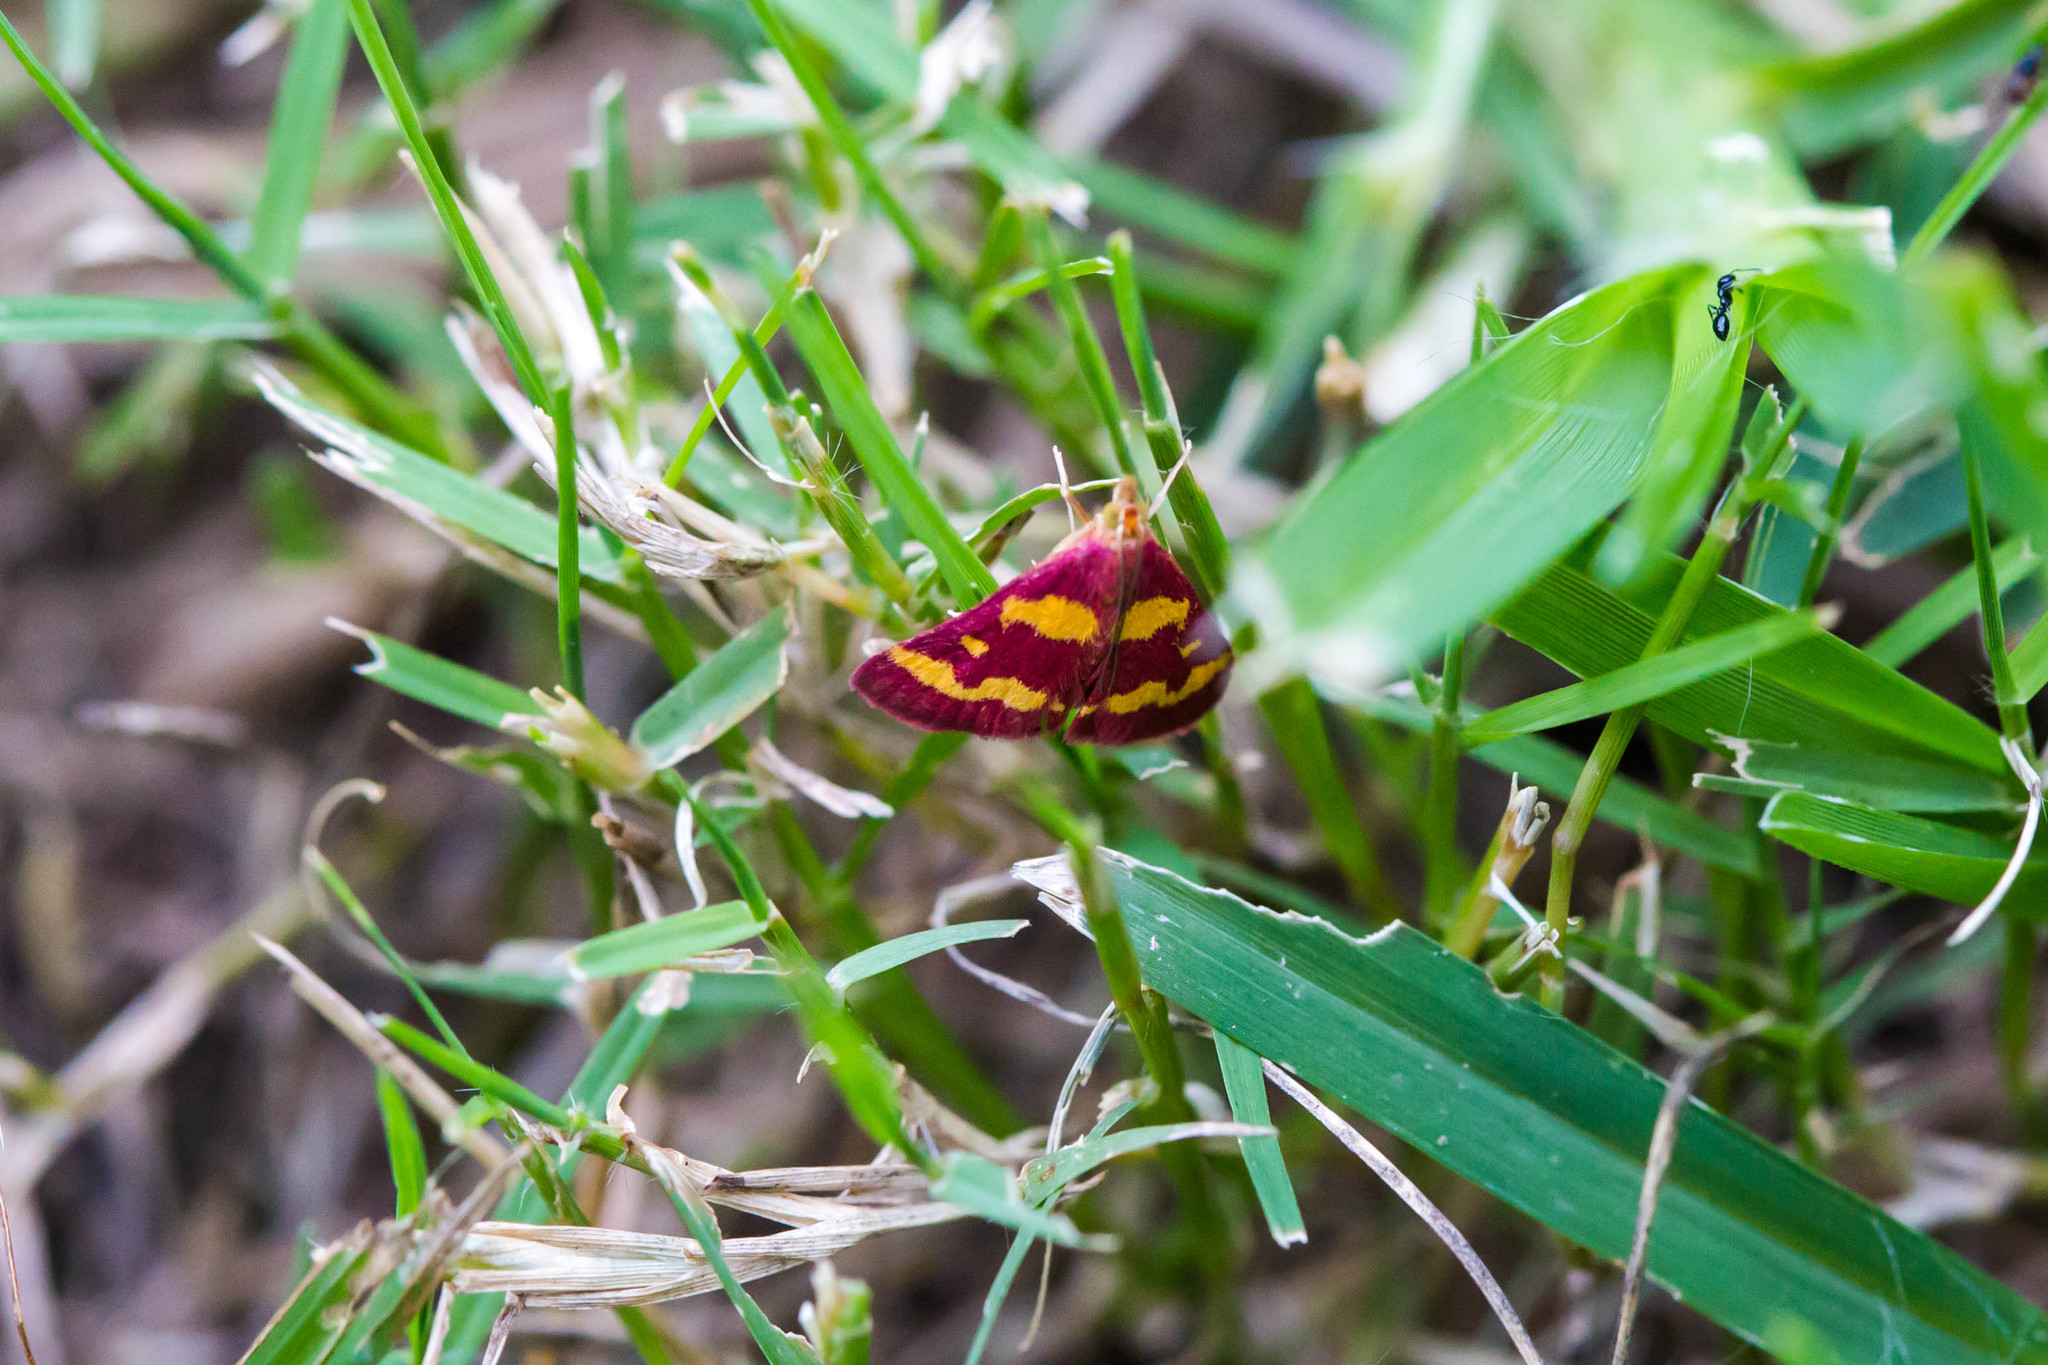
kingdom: Animalia
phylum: Arthropoda
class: Insecta
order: Lepidoptera
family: Crambidae
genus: Pyrausta
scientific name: Pyrausta tyralis
